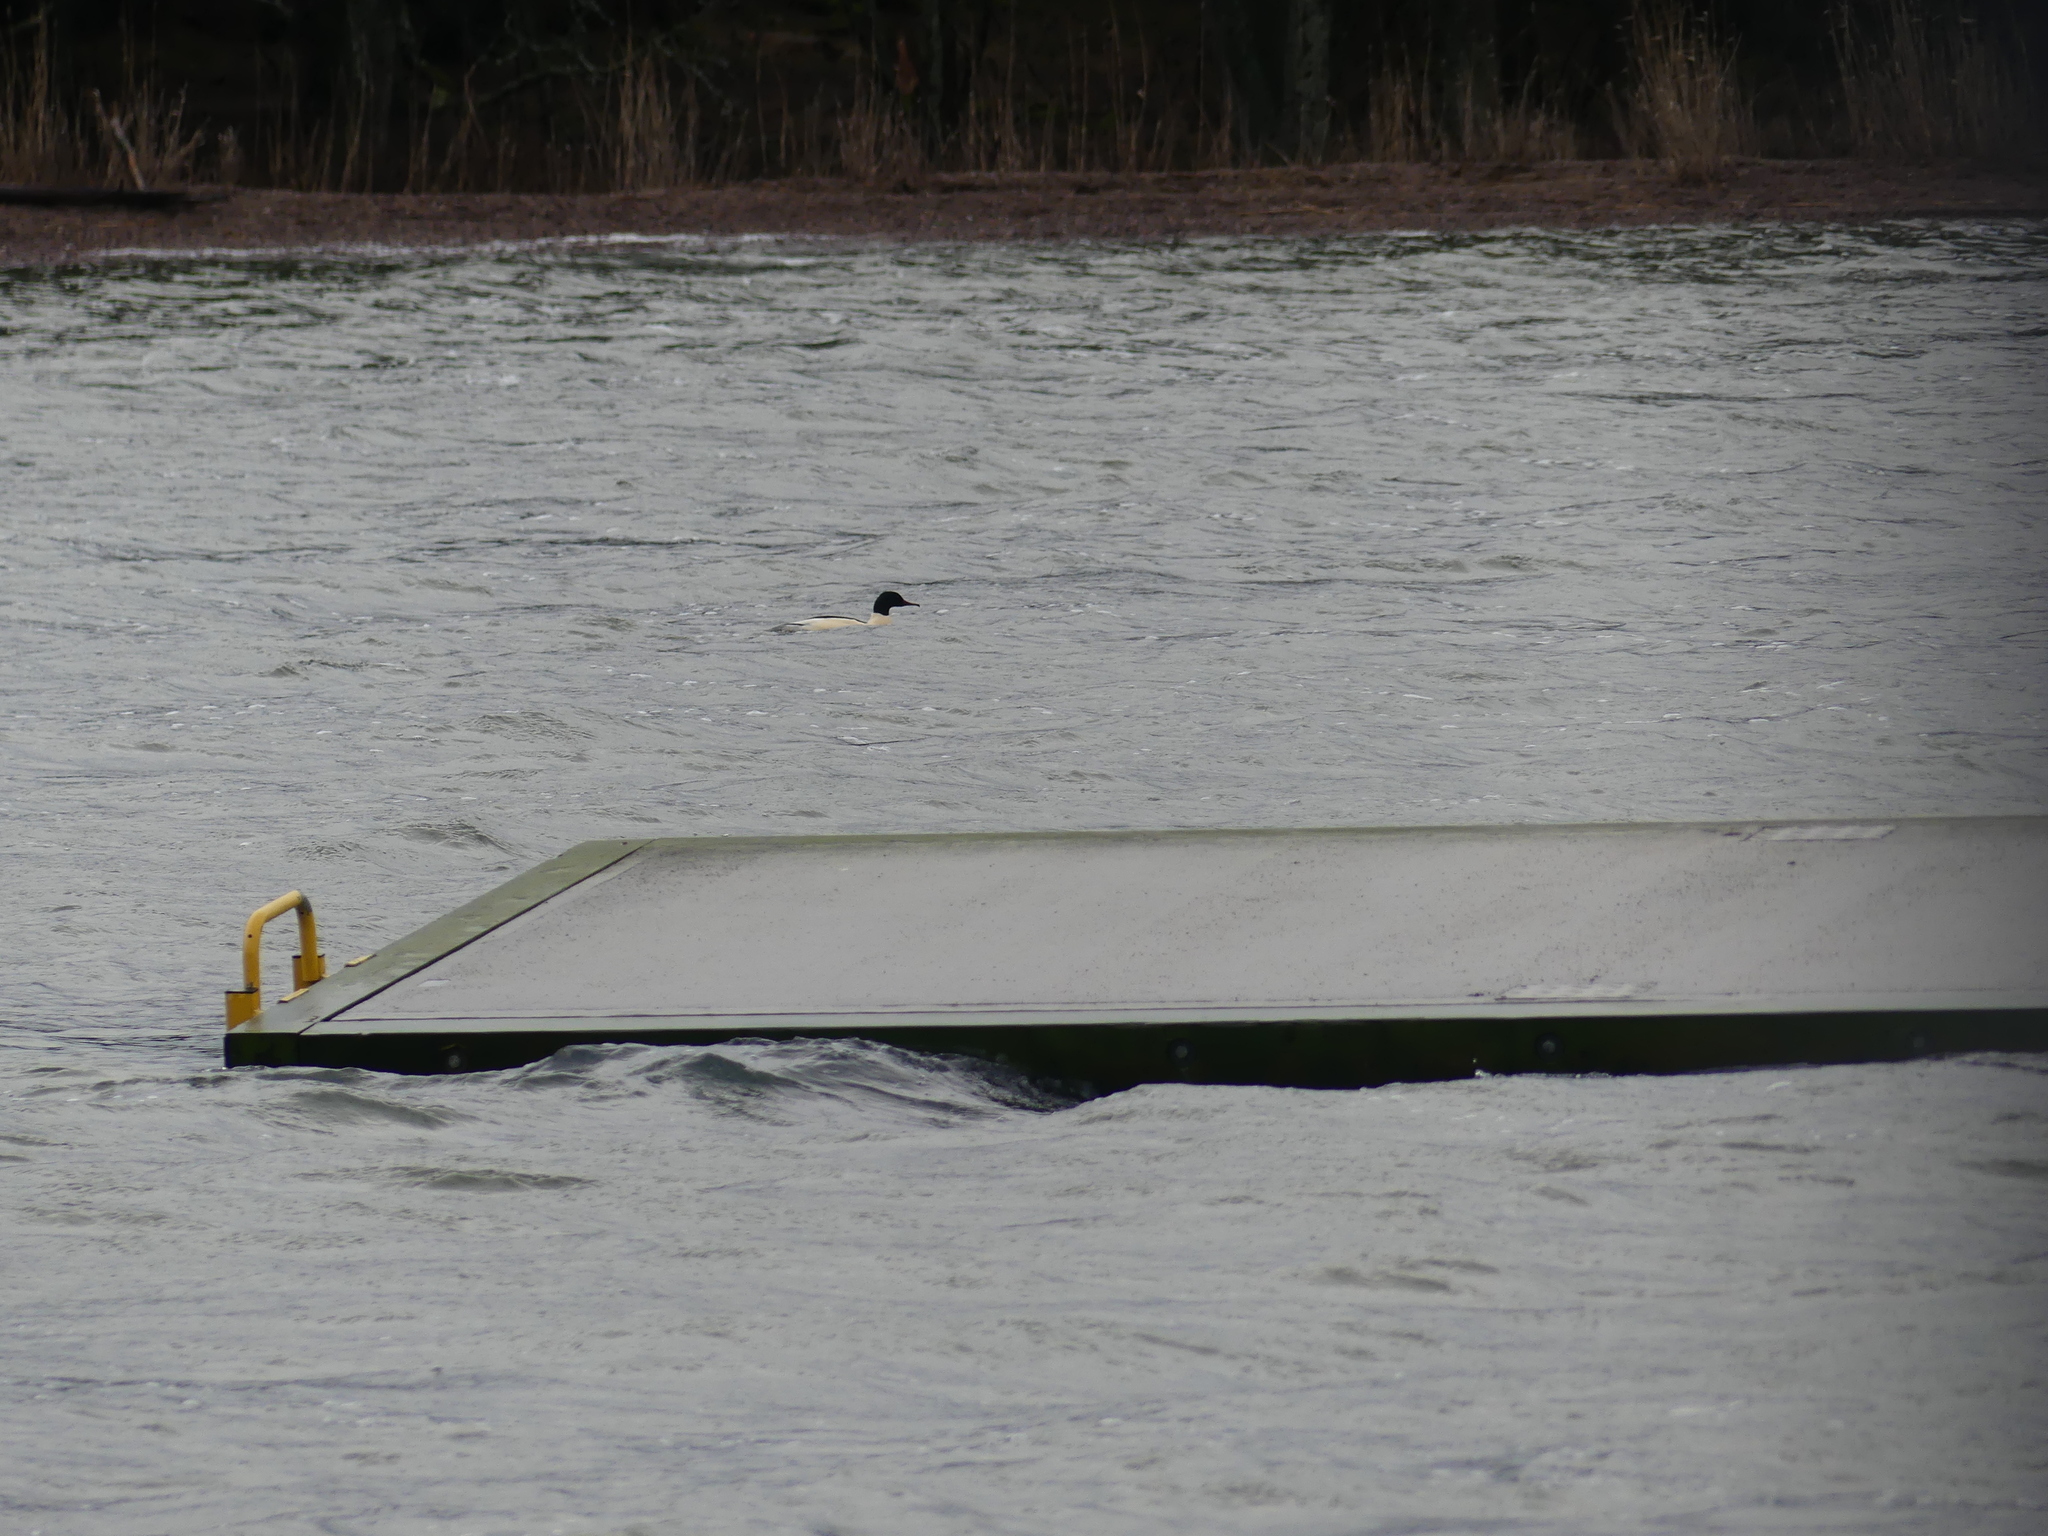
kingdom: Animalia
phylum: Chordata
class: Aves
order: Anseriformes
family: Anatidae
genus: Mergus
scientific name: Mergus merganser
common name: Common merganser
